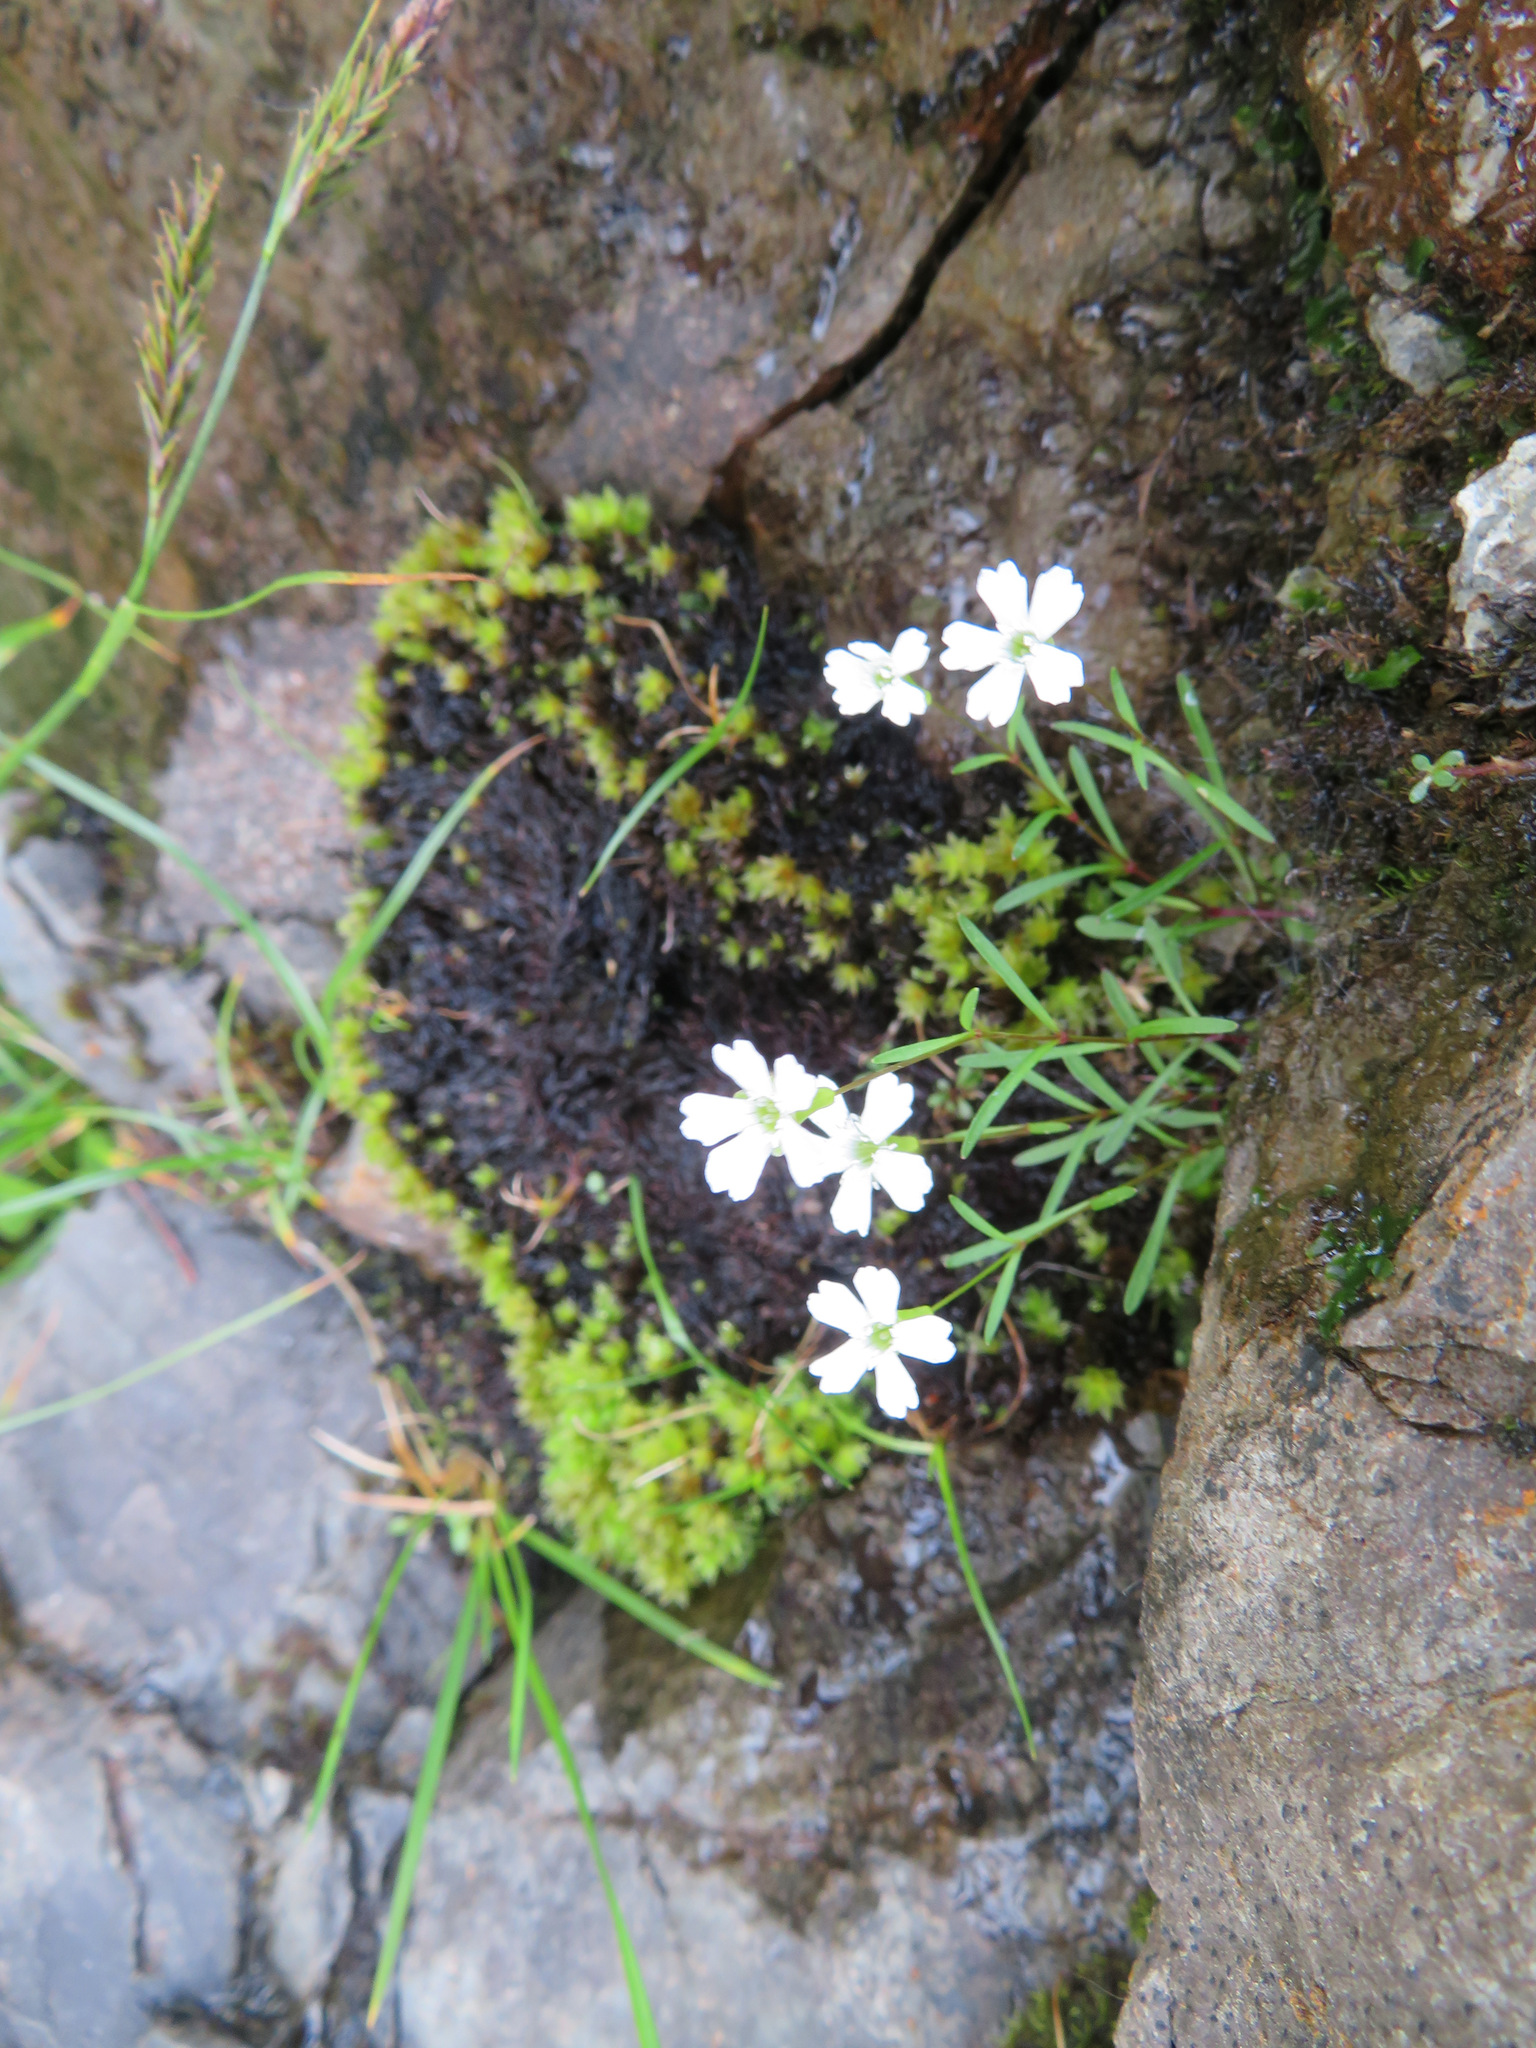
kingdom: Plantae
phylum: Tracheophyta
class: Magnoliopsida
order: Caryophyllales
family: Caryophyllaceae
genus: Heliosperma
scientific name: Heliosperma pusillum
